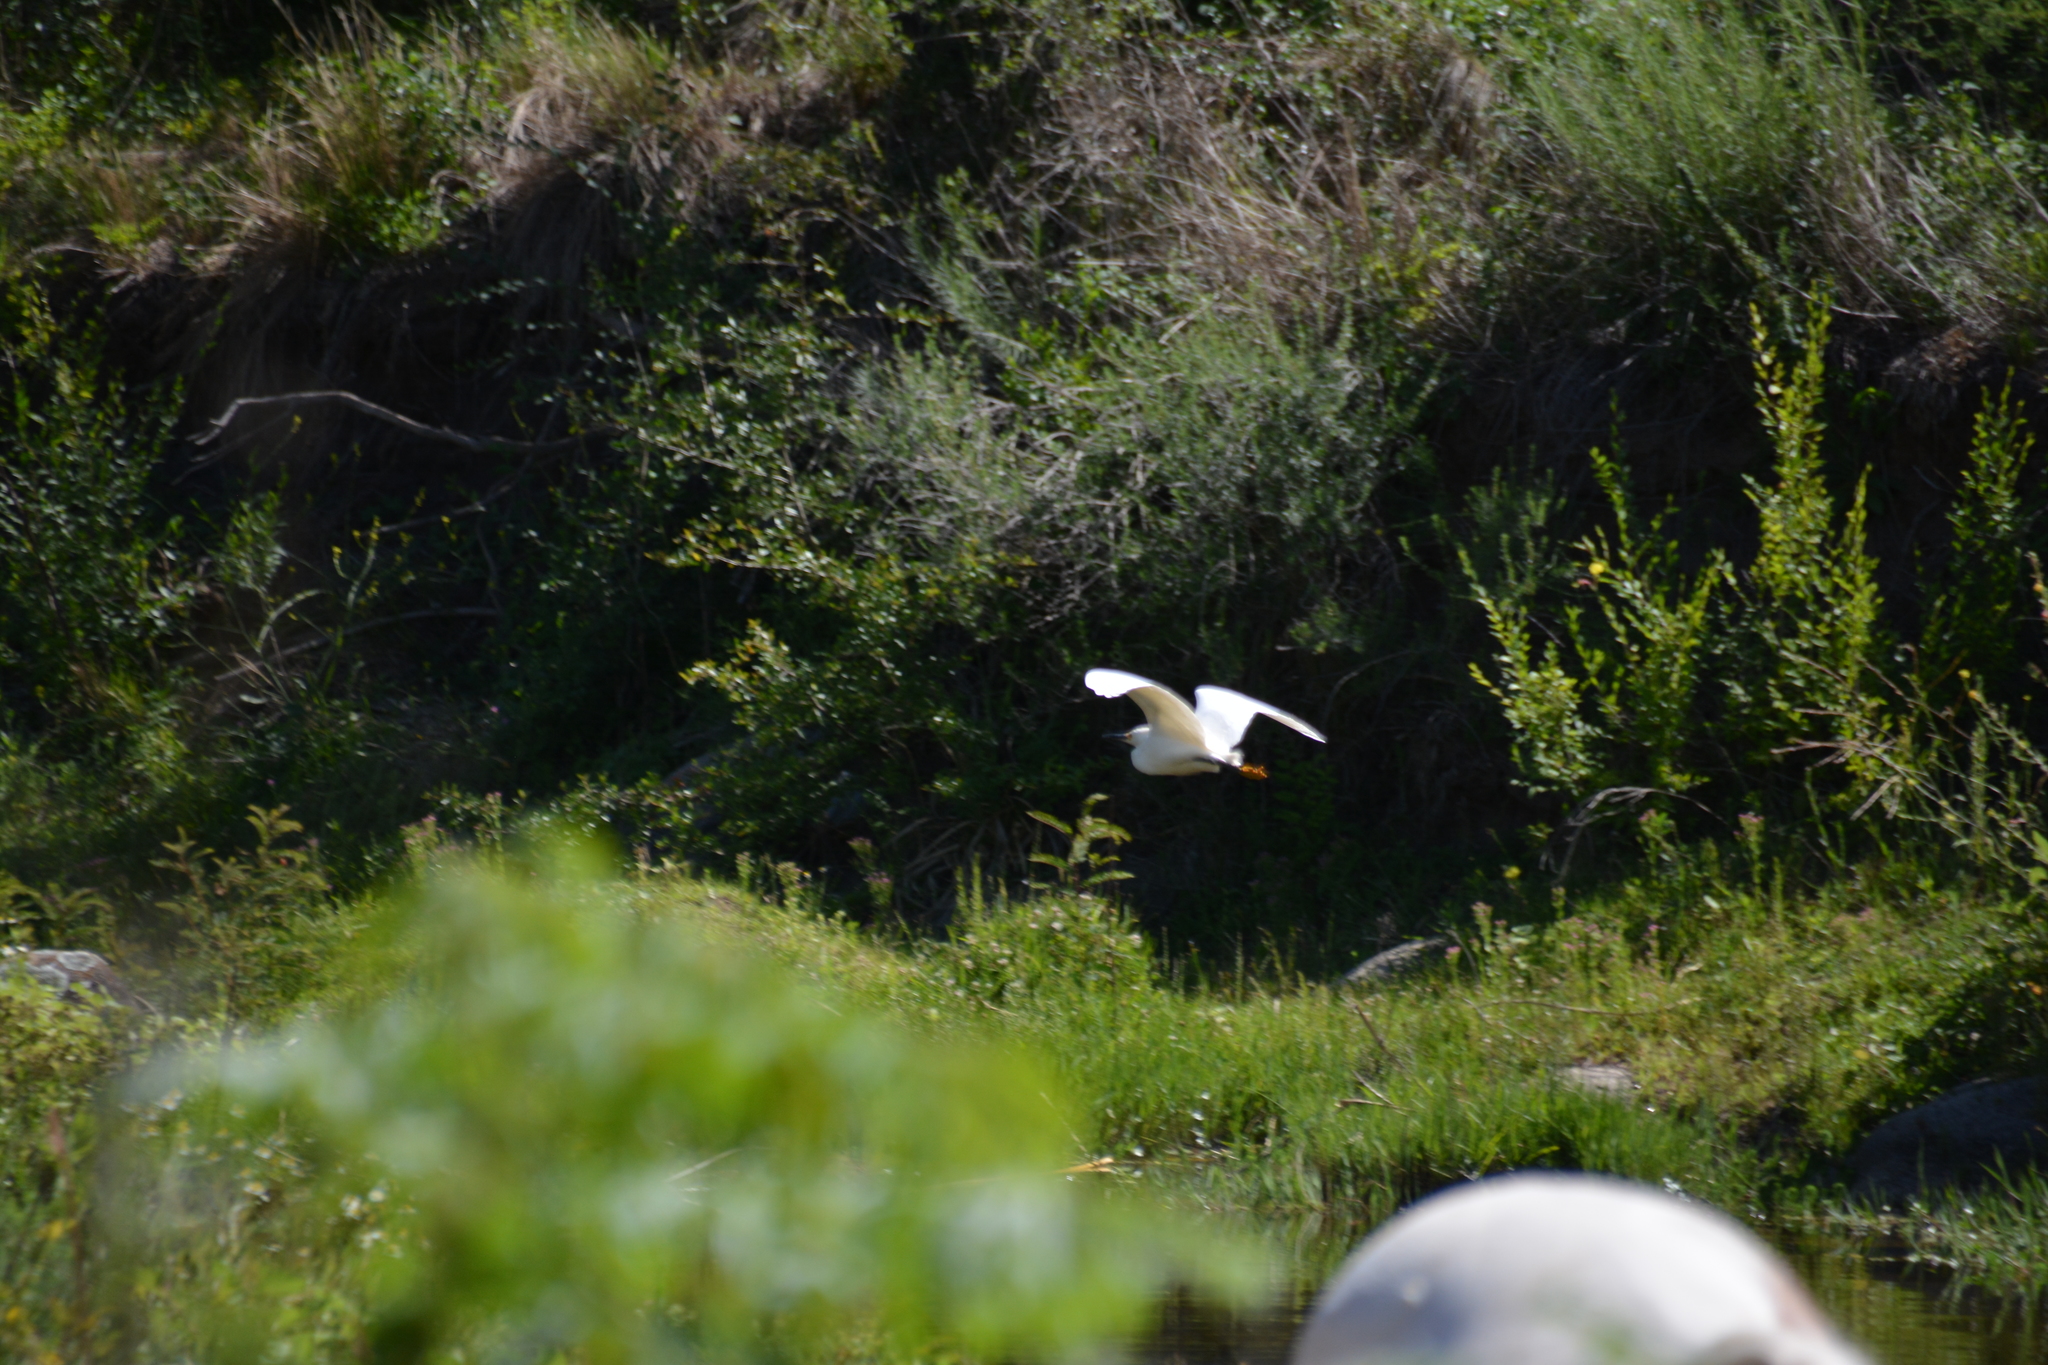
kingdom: Animalia
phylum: Chordata
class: Aves
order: Pelecaniformes
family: Ardeidae
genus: Egretta
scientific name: Egretta thula
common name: Snowy egret
